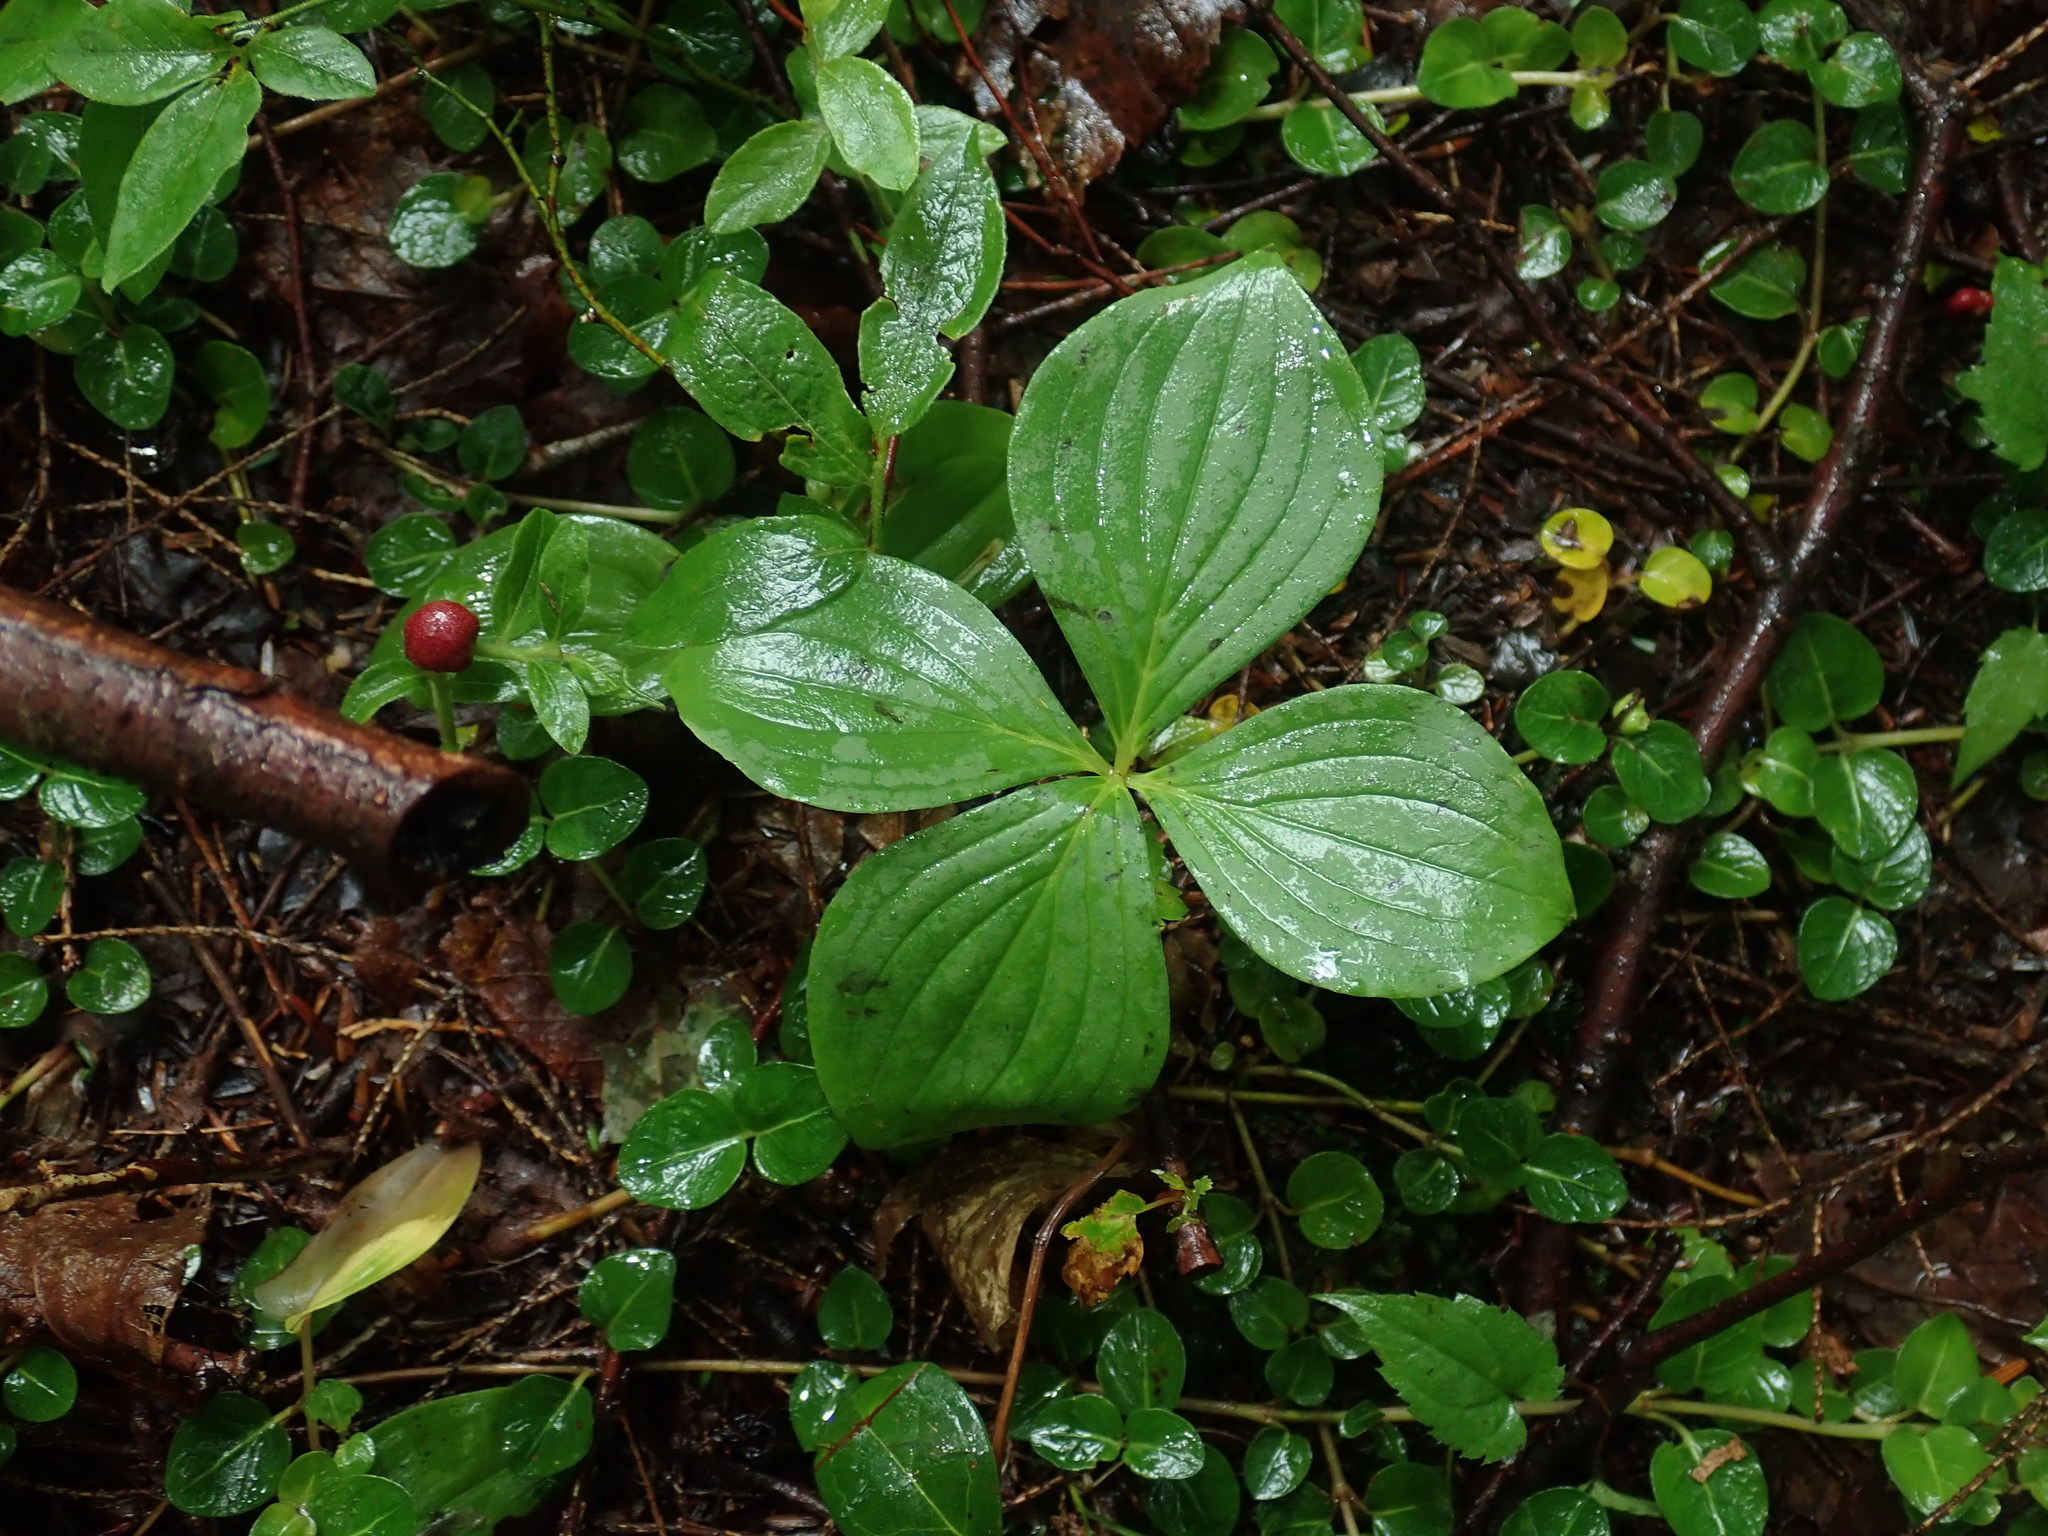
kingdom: Plantae
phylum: Tracheophyta
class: Magnoliopsida
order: Cornales
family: Cornaceae
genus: Cornus
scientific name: Cornus canadensis
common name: Creeping dogwood
